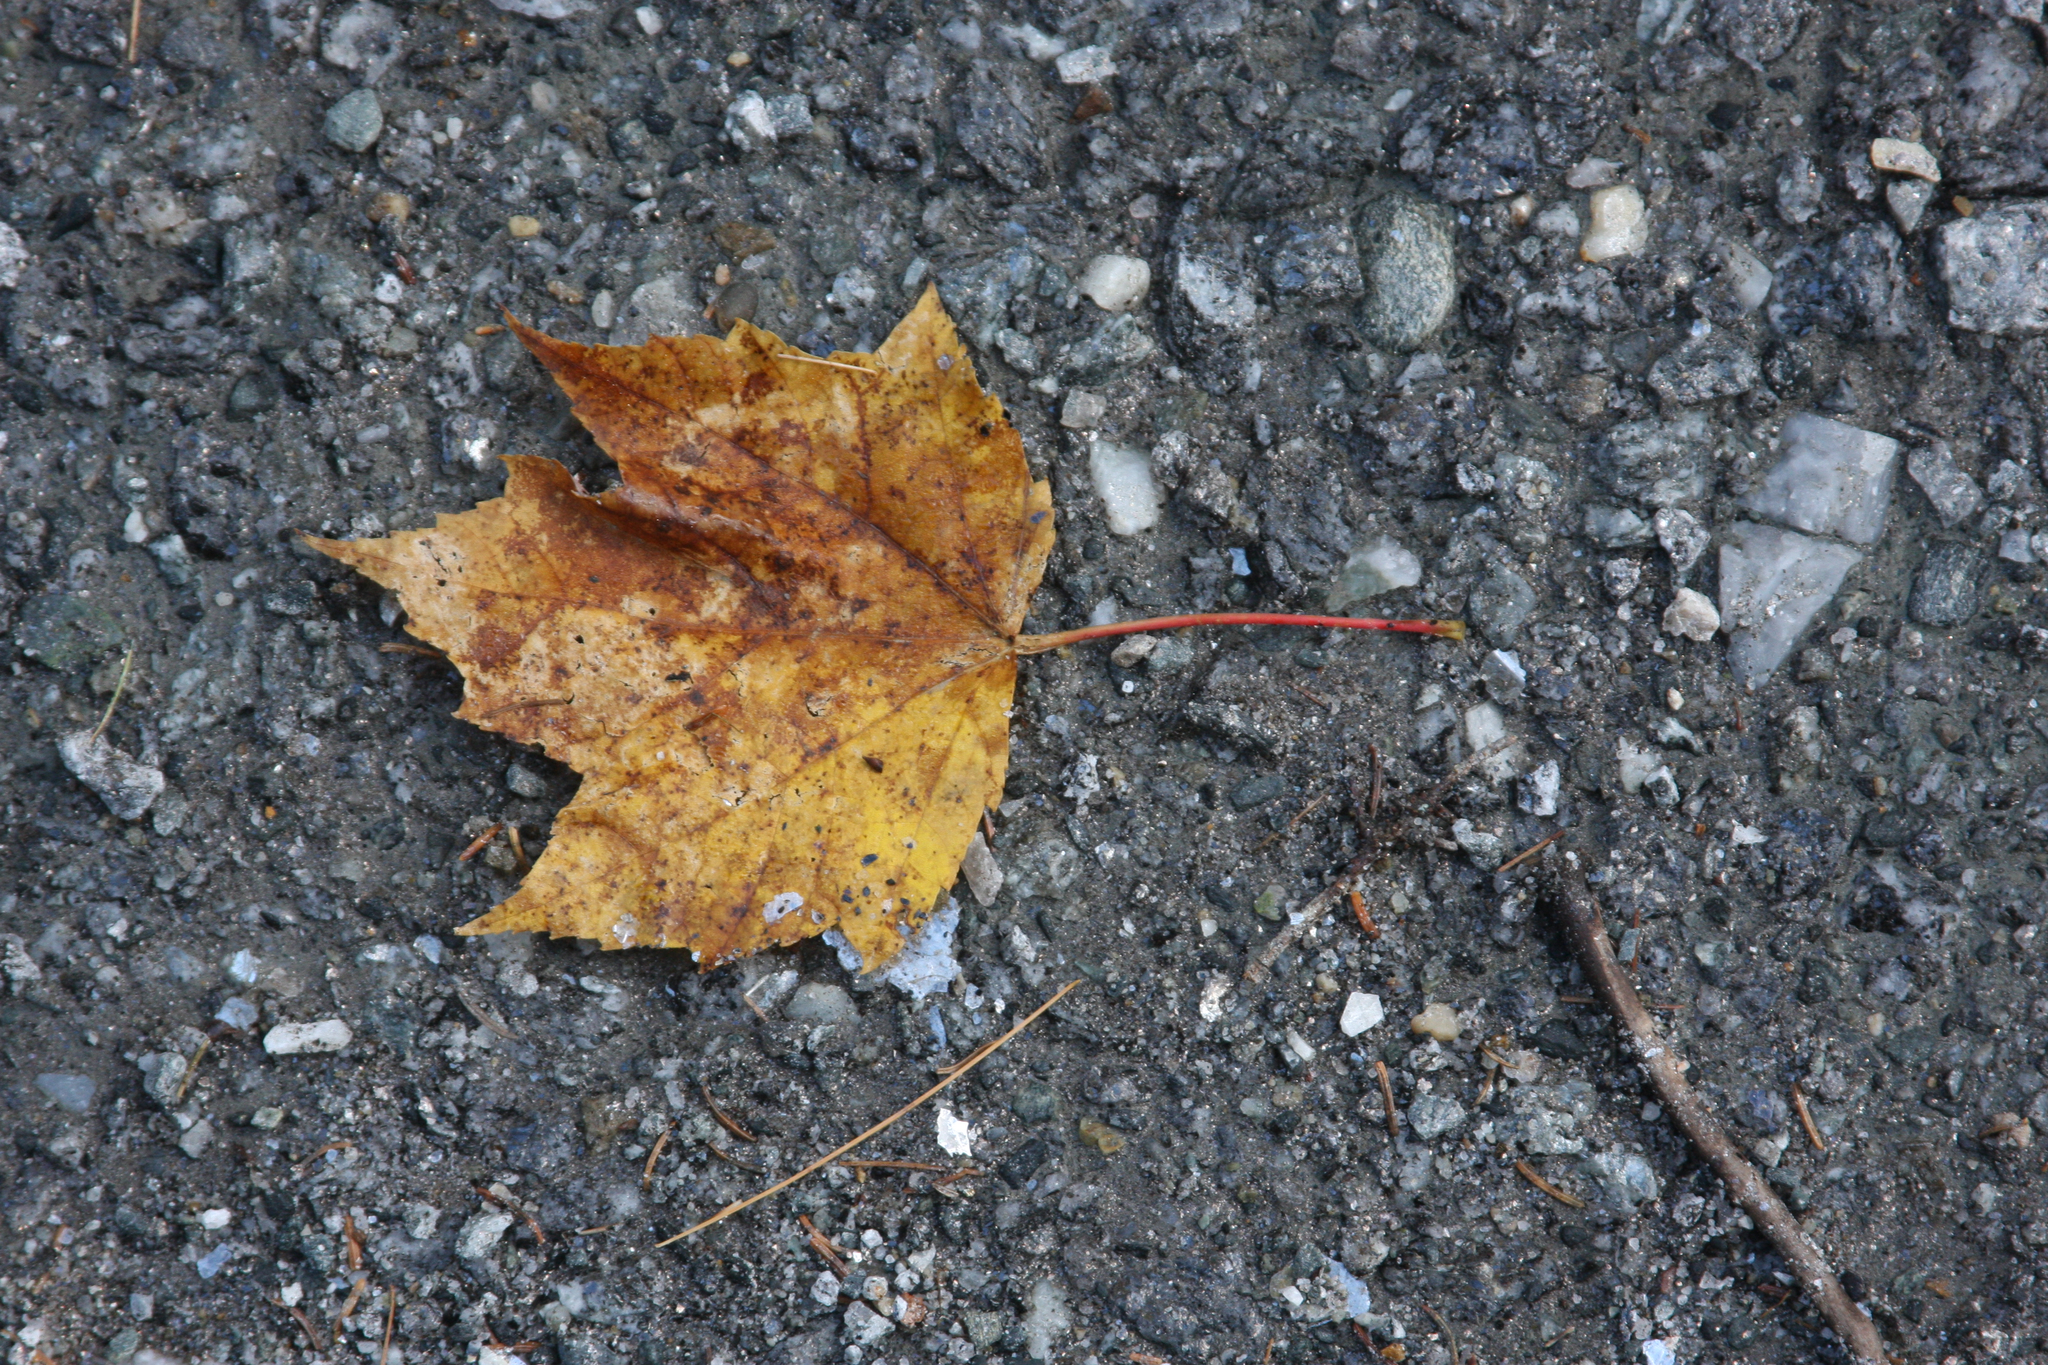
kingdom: Plantae
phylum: Tracheophyta
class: Magnoliopsida
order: Sapindales
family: Sapindaceae
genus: Acer
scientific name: Acer rubrum
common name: Red maple
